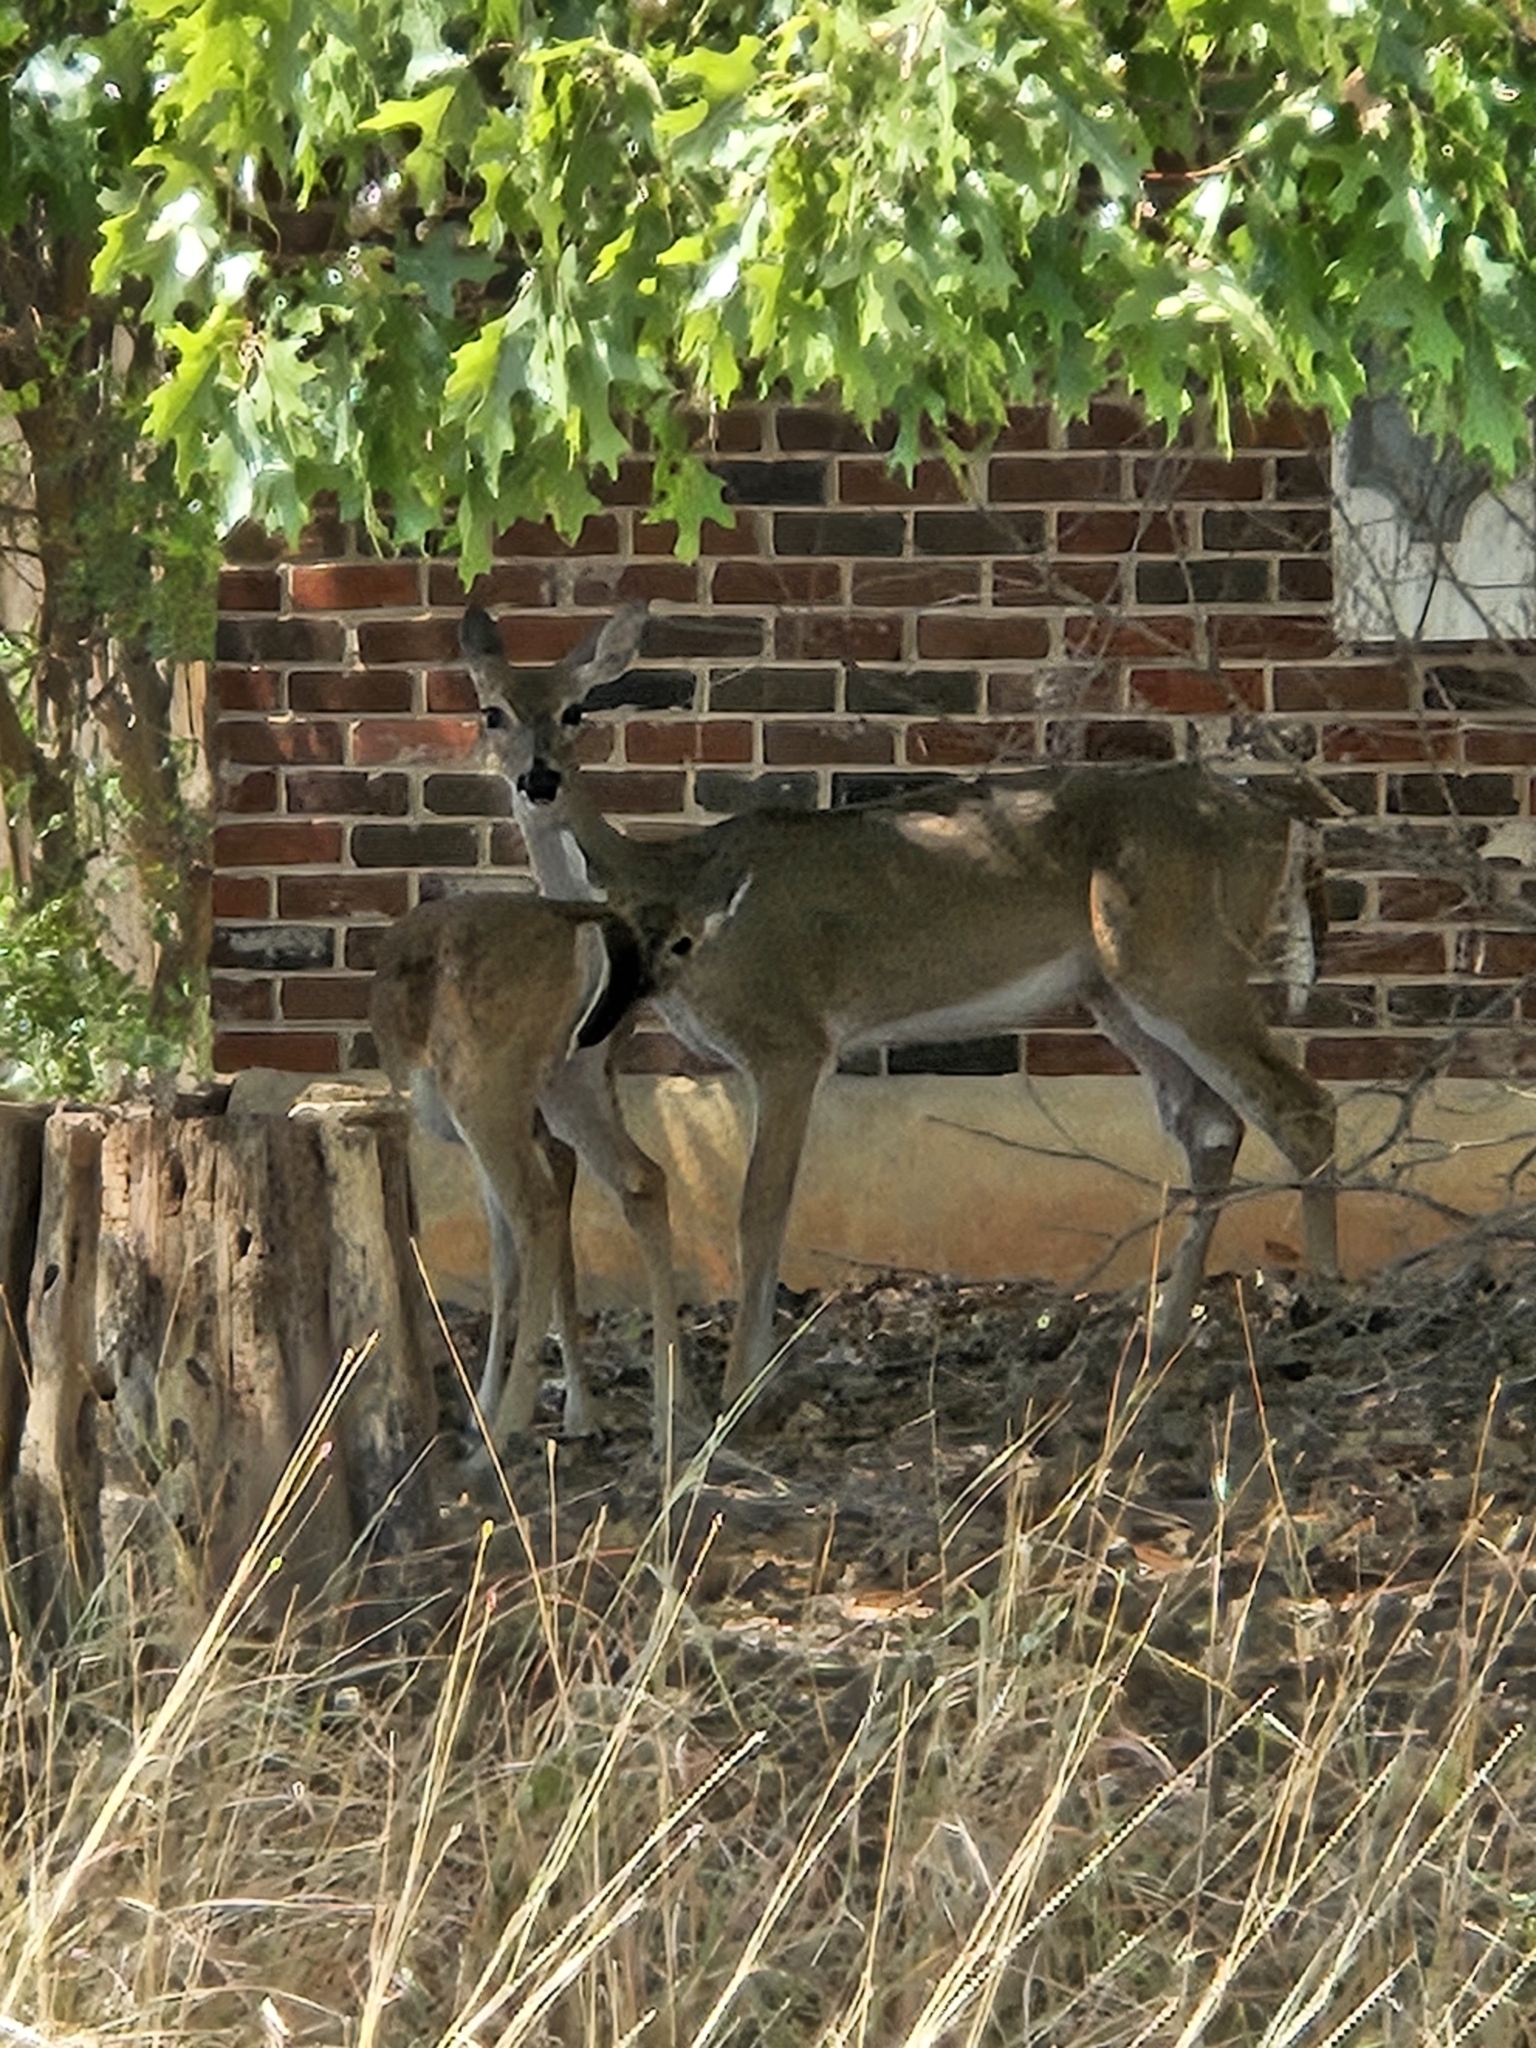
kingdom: Animalia
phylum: Chordata
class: Mammalia
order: Artiodactyla
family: Cervidae
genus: Odocoileus
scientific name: Odocoileus virginianus
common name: White-tailed deer
